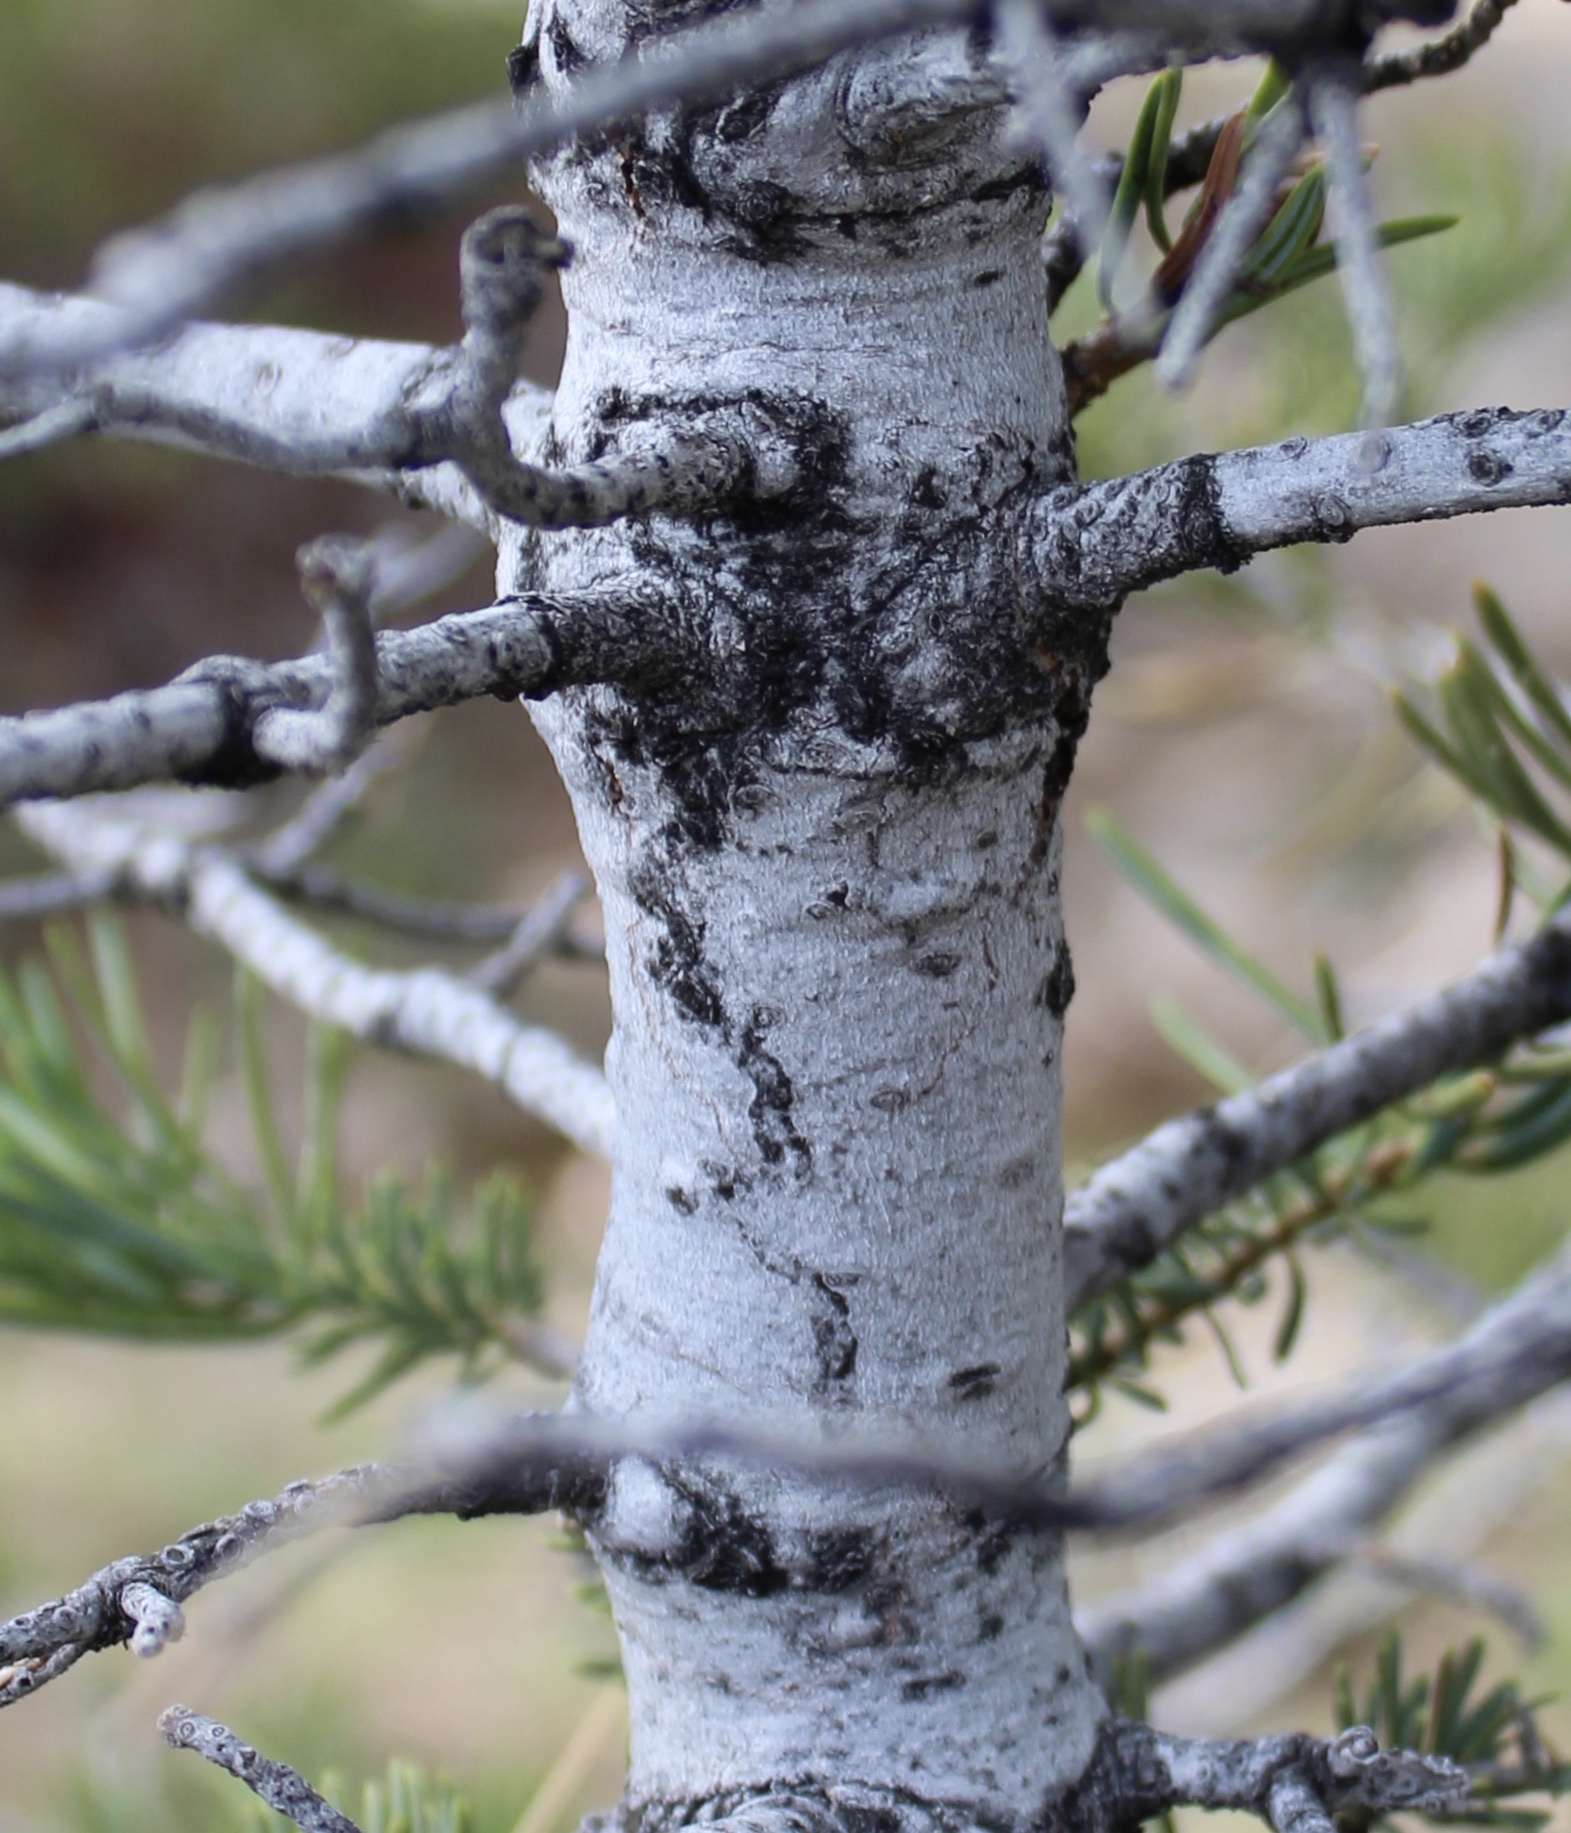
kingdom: Plantae
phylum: Tracheophyta
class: Pinopsida
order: Pinales
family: Pinaceae
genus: Abies
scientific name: Abies concolor
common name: Colorado fir
